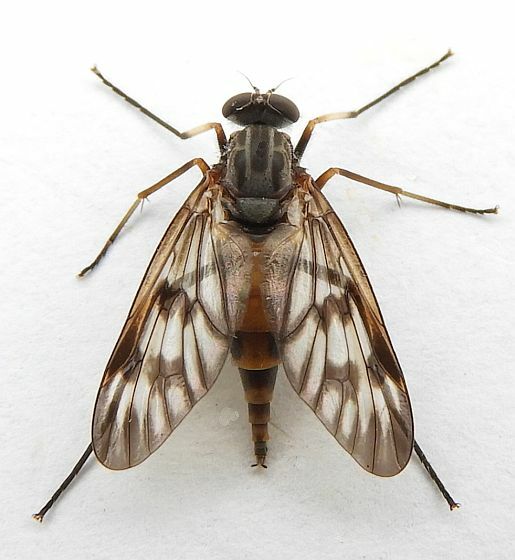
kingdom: Animalia
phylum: Arthropoda
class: Insecta
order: Diptera
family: Rhagionidae
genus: Rhagio
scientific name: Rhagio mystaceus
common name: Common snipe fly
